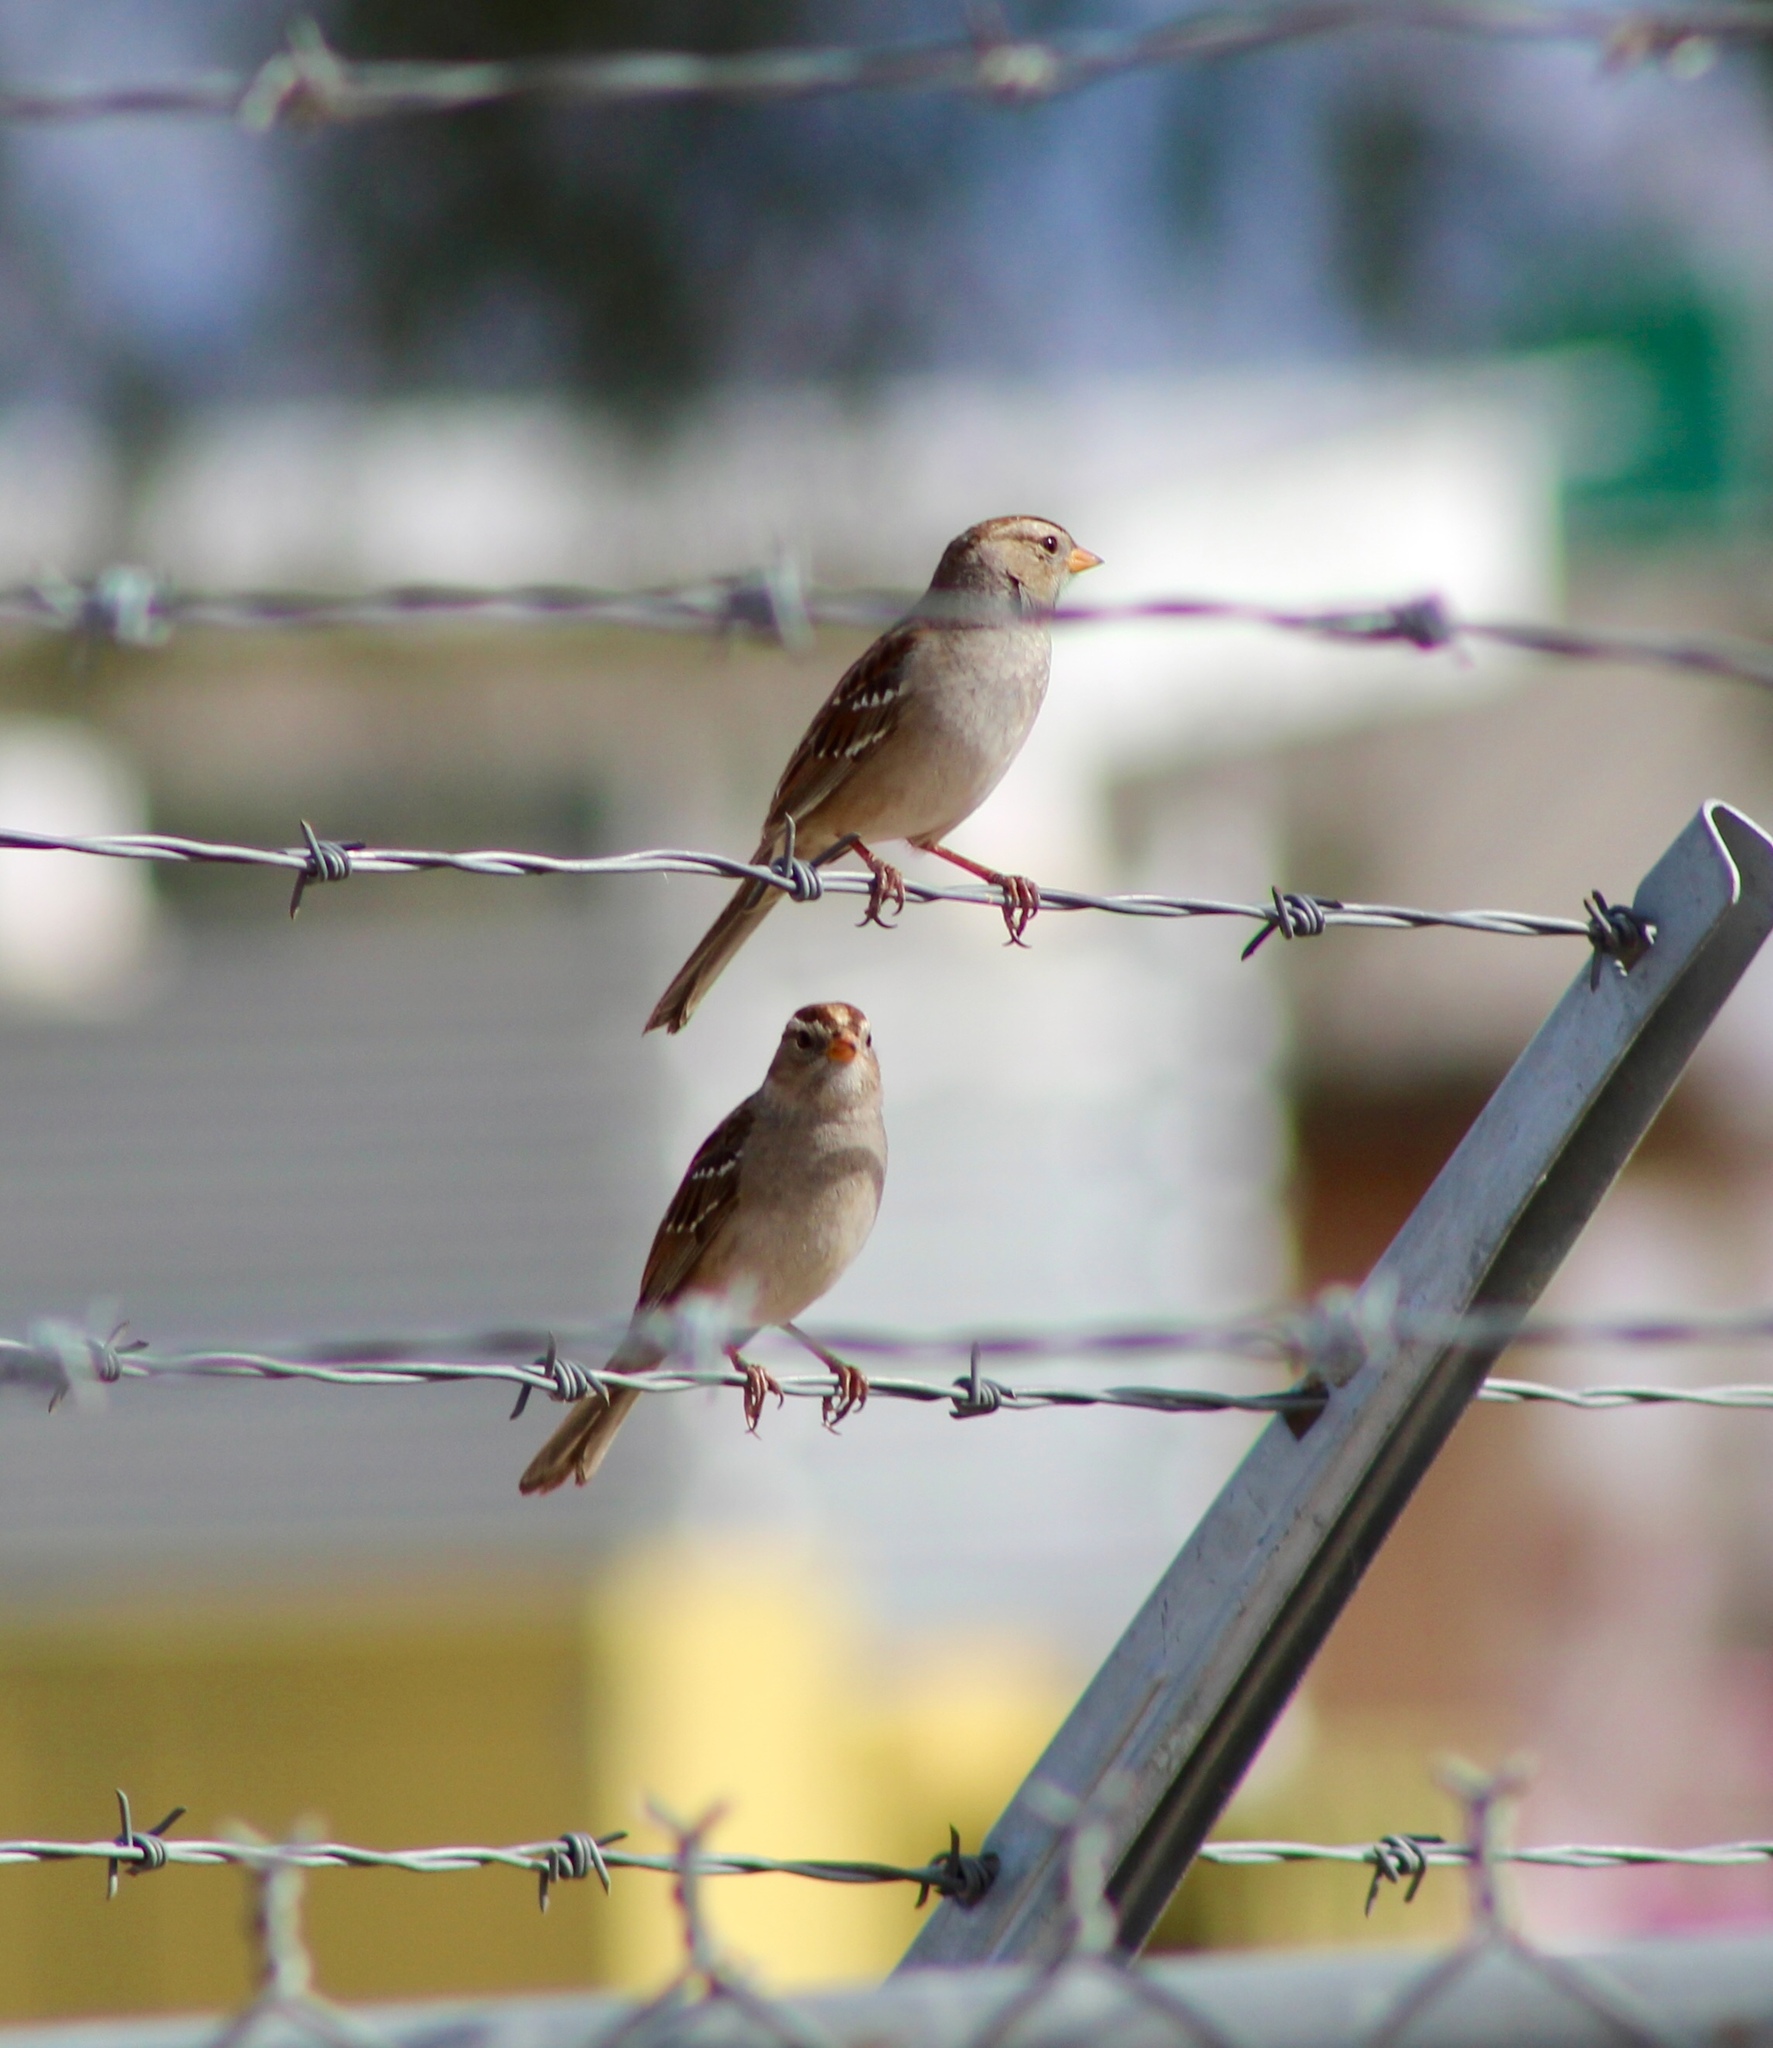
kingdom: Animalia
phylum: Chordata
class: Aves
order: Passeriformes
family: Passerellidae
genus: Zonotrichia
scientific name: Zonotrichia leucophrys
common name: White-crowned sparrow
